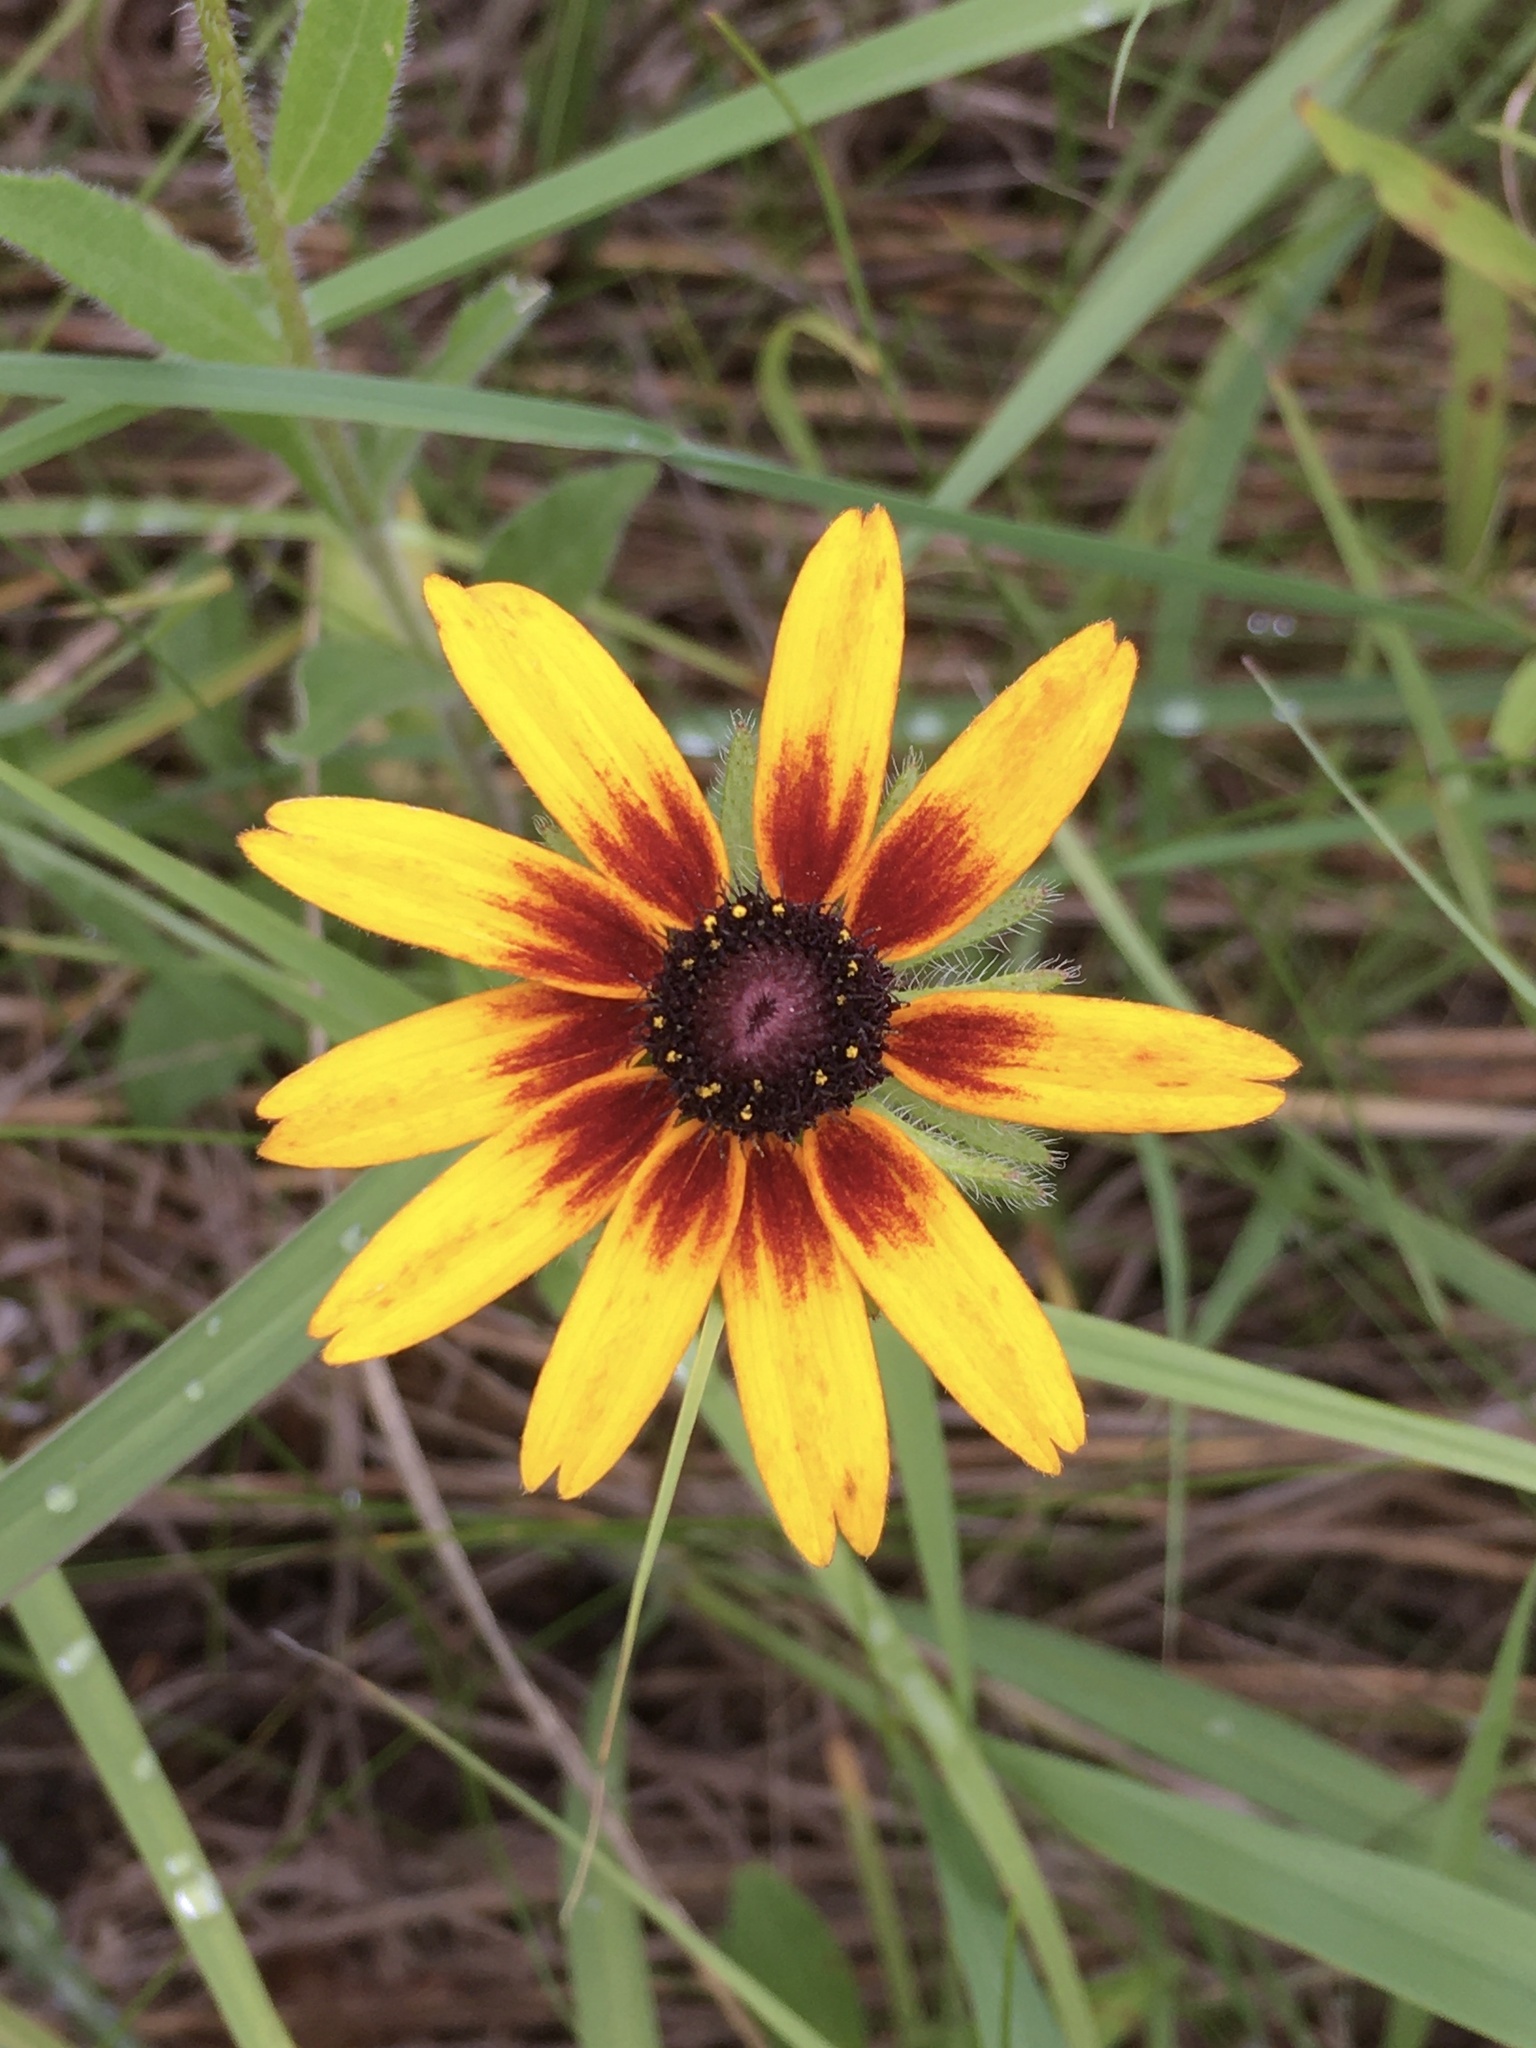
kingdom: Plantae
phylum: Tracheophyta
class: Magnoliopsida
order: Asterales
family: Asteraceae
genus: Rudbeckia
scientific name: Rudbeckia hirta
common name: Black-eyed-susan
